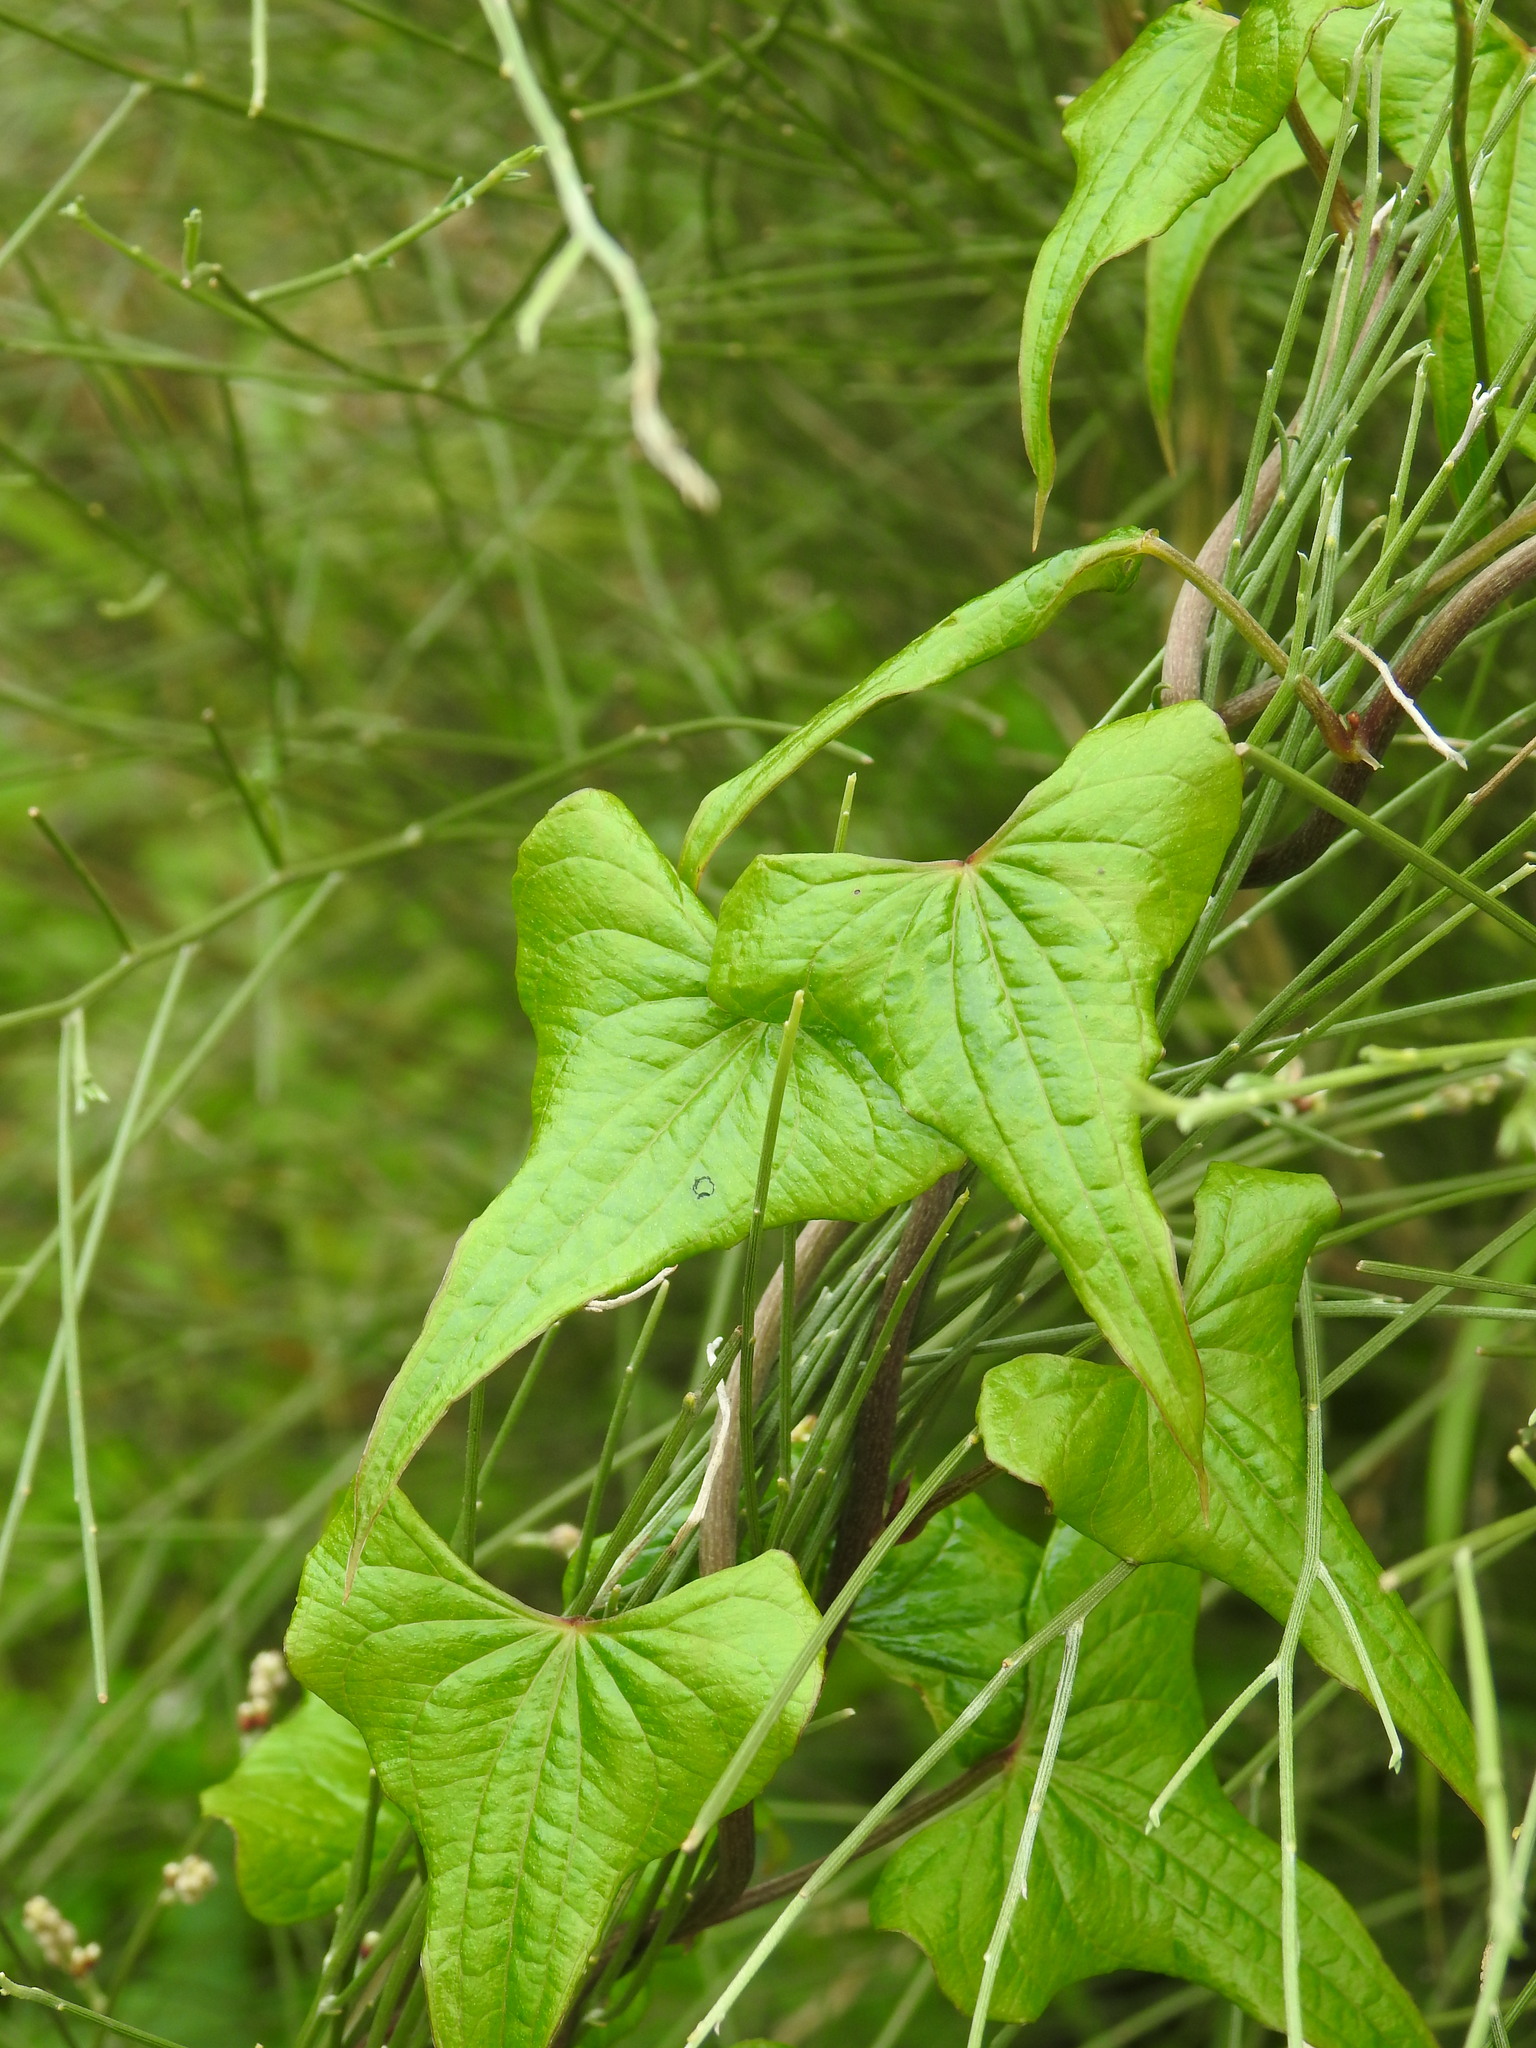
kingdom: Plantae
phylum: Tracheophyta
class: Liliopsida
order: Dioscoreales
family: Dioscoreaceae
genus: Dioscorea
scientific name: Dioscorea communis
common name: Black-bindweed
